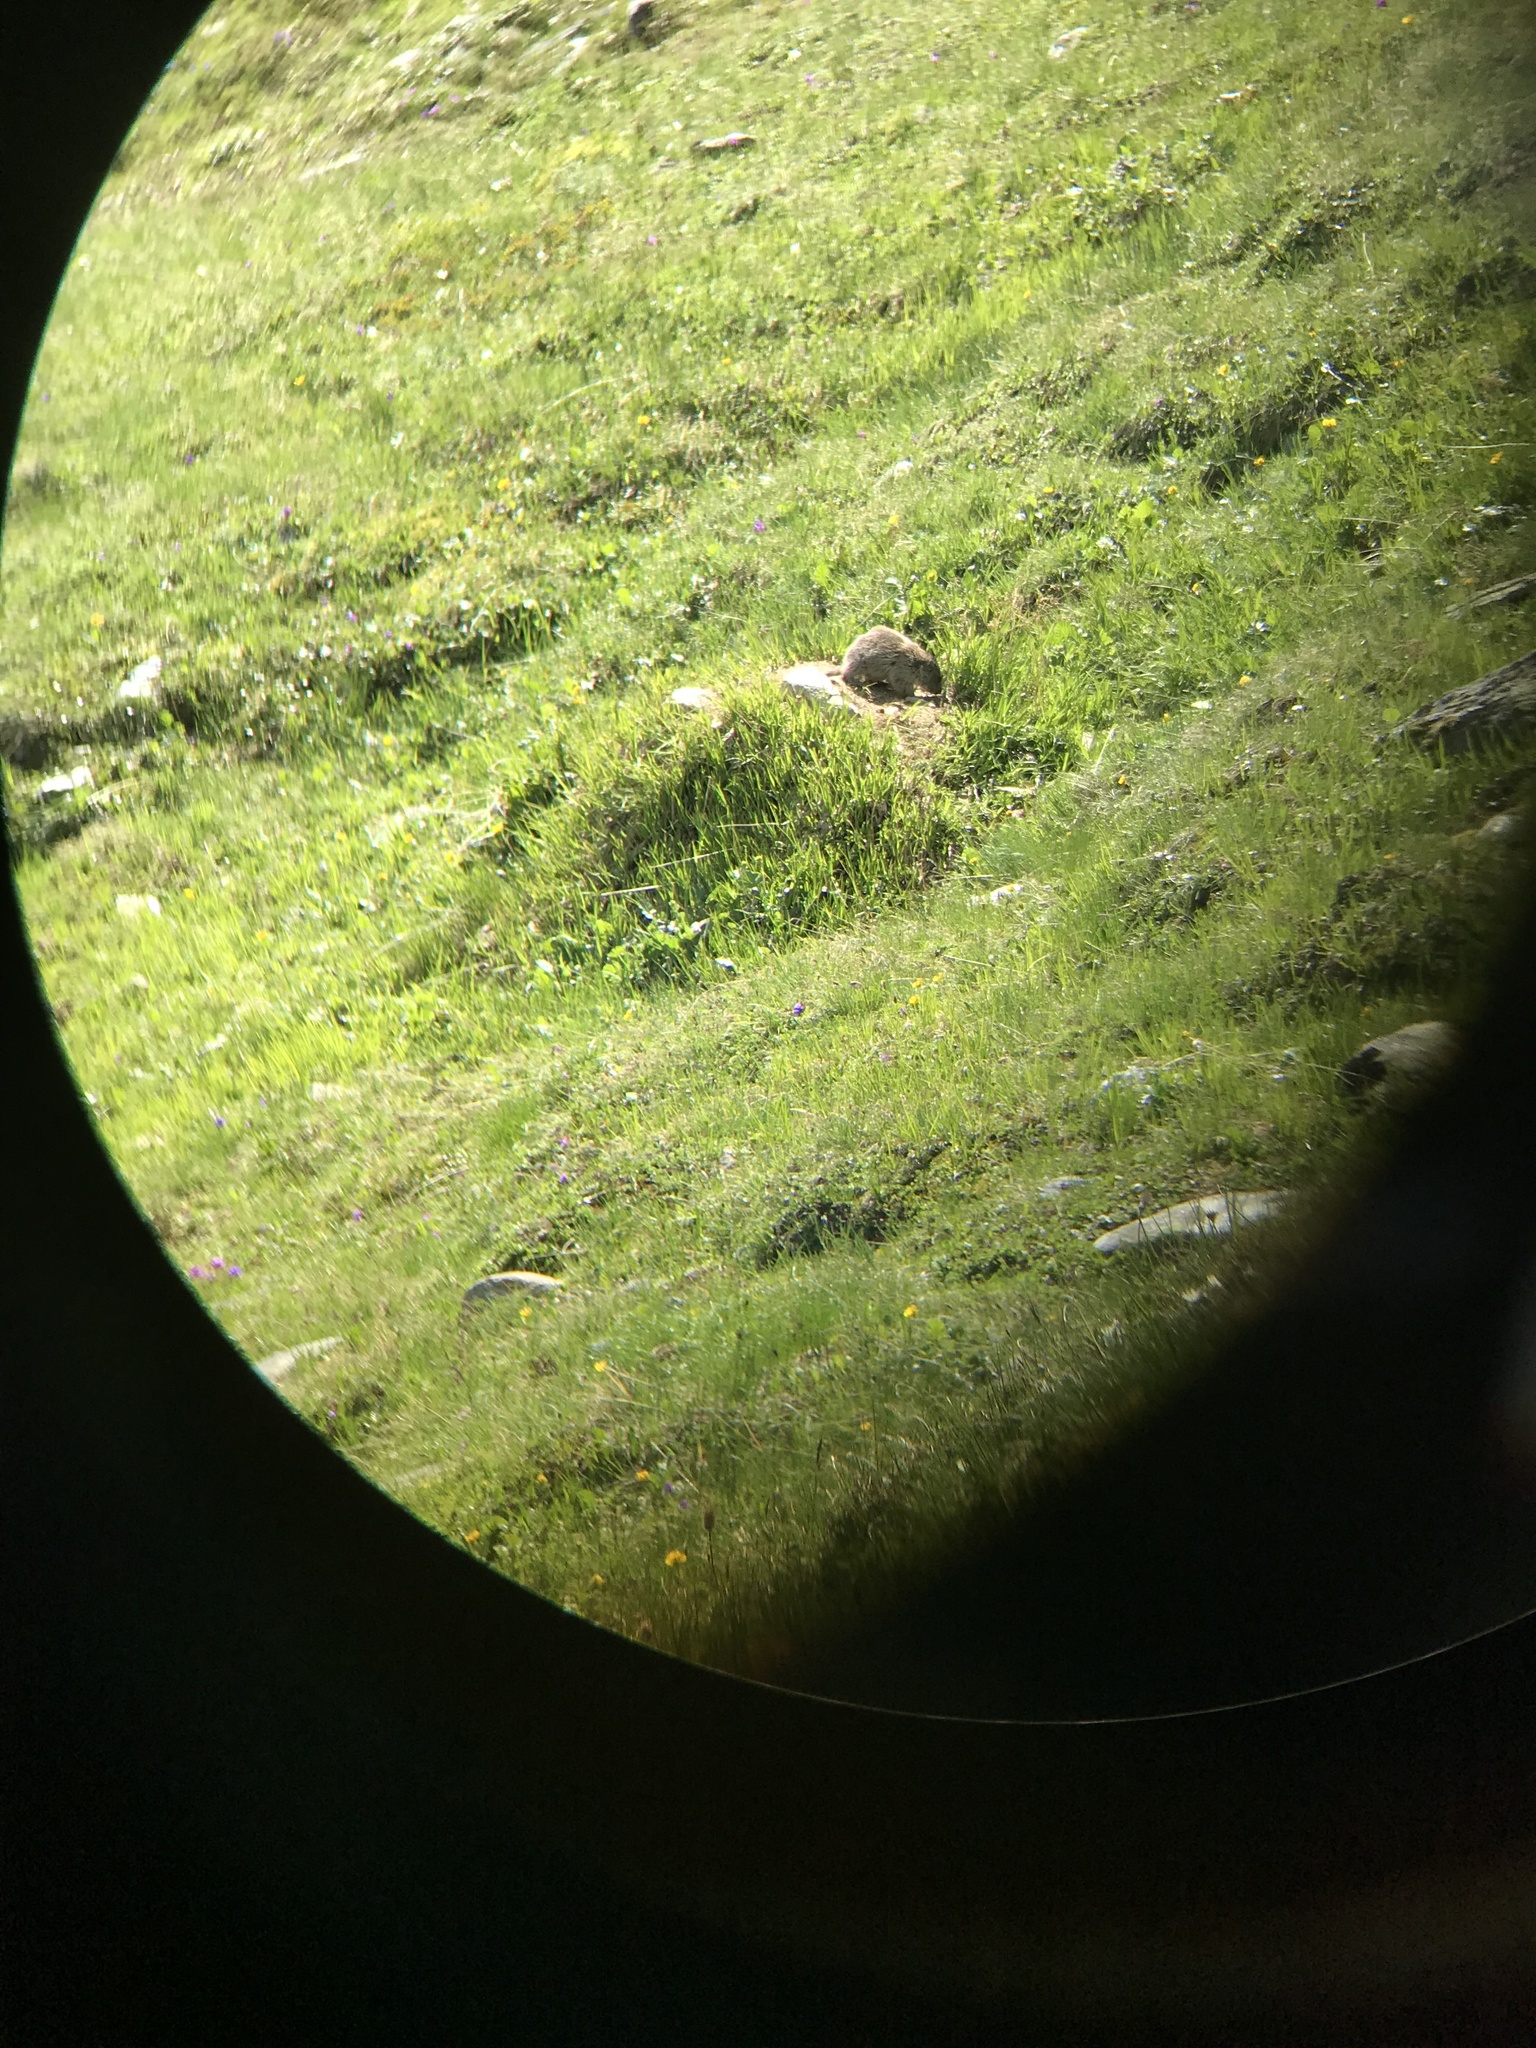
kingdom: Animalia
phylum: Chordata
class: Mammalia
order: Rodentia
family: Sciuridae
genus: Marmota
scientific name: Marmota marmota
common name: Alpine marmot
